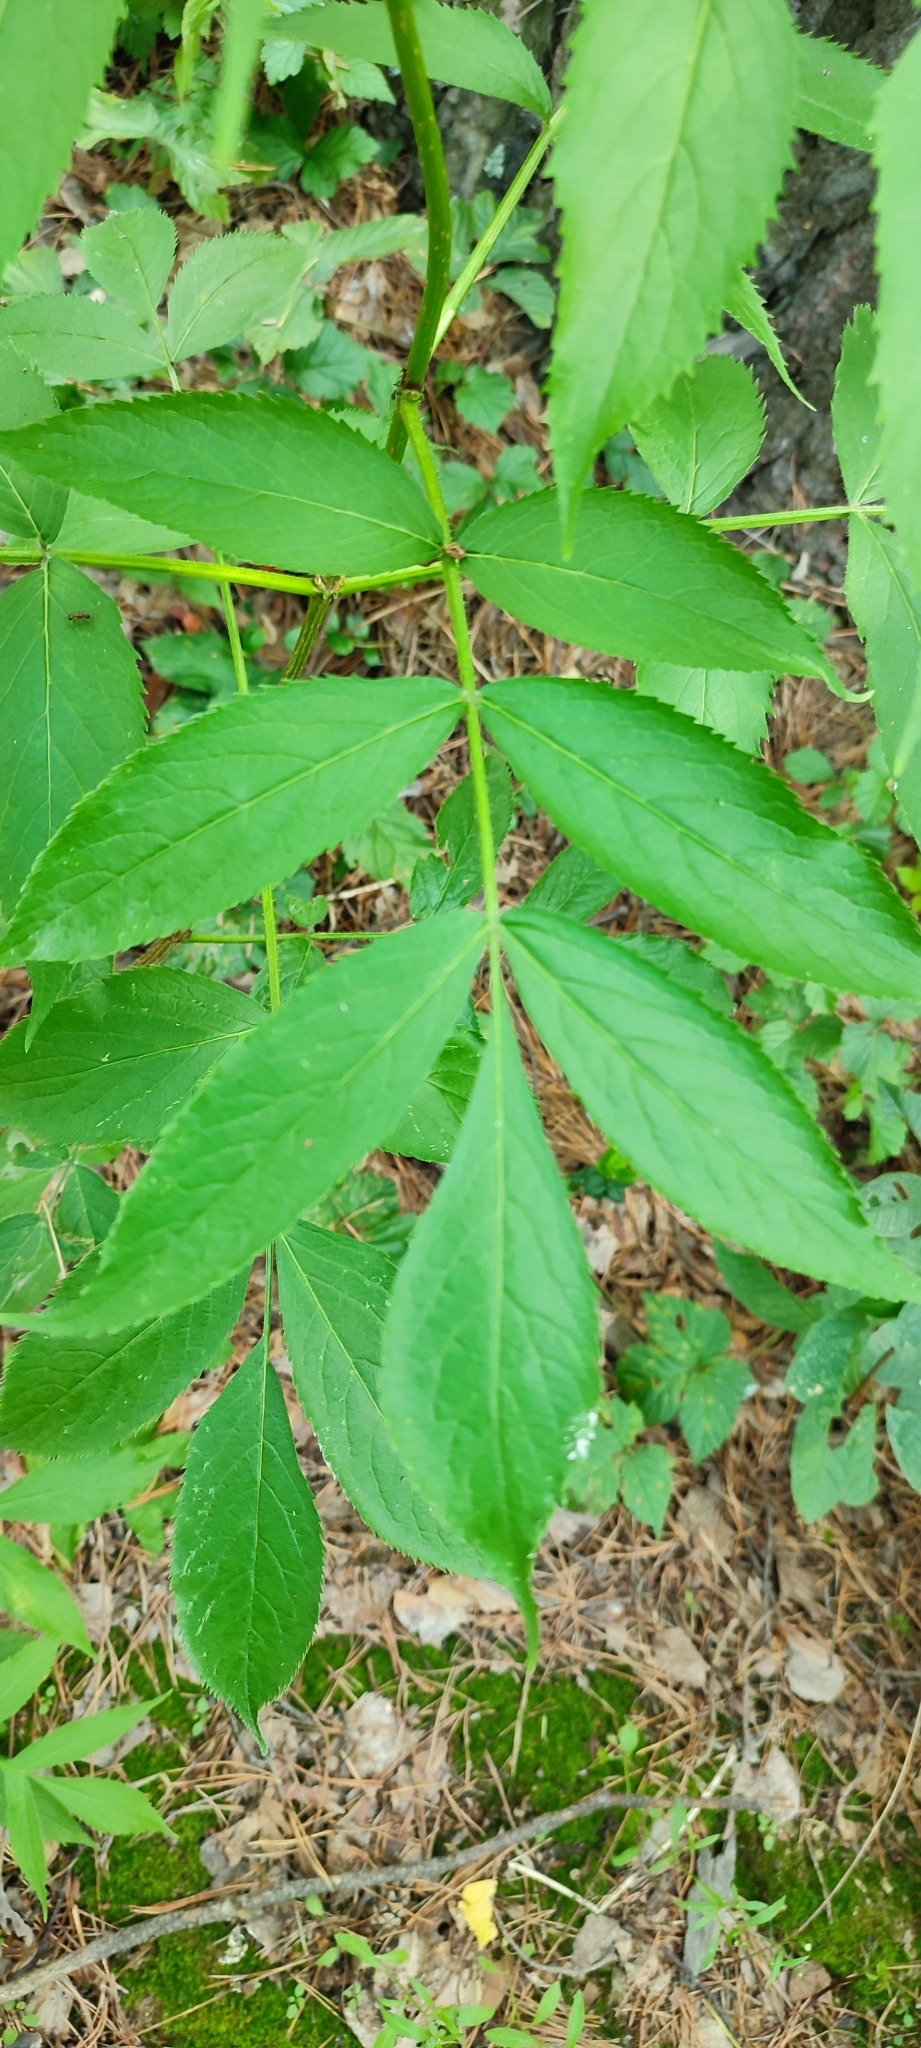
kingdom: Plantae
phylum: Tracheophyta
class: Magnoliopsida
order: Dipsacales
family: Viburnaceae
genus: Sambucus
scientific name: Sambucus sibirica
